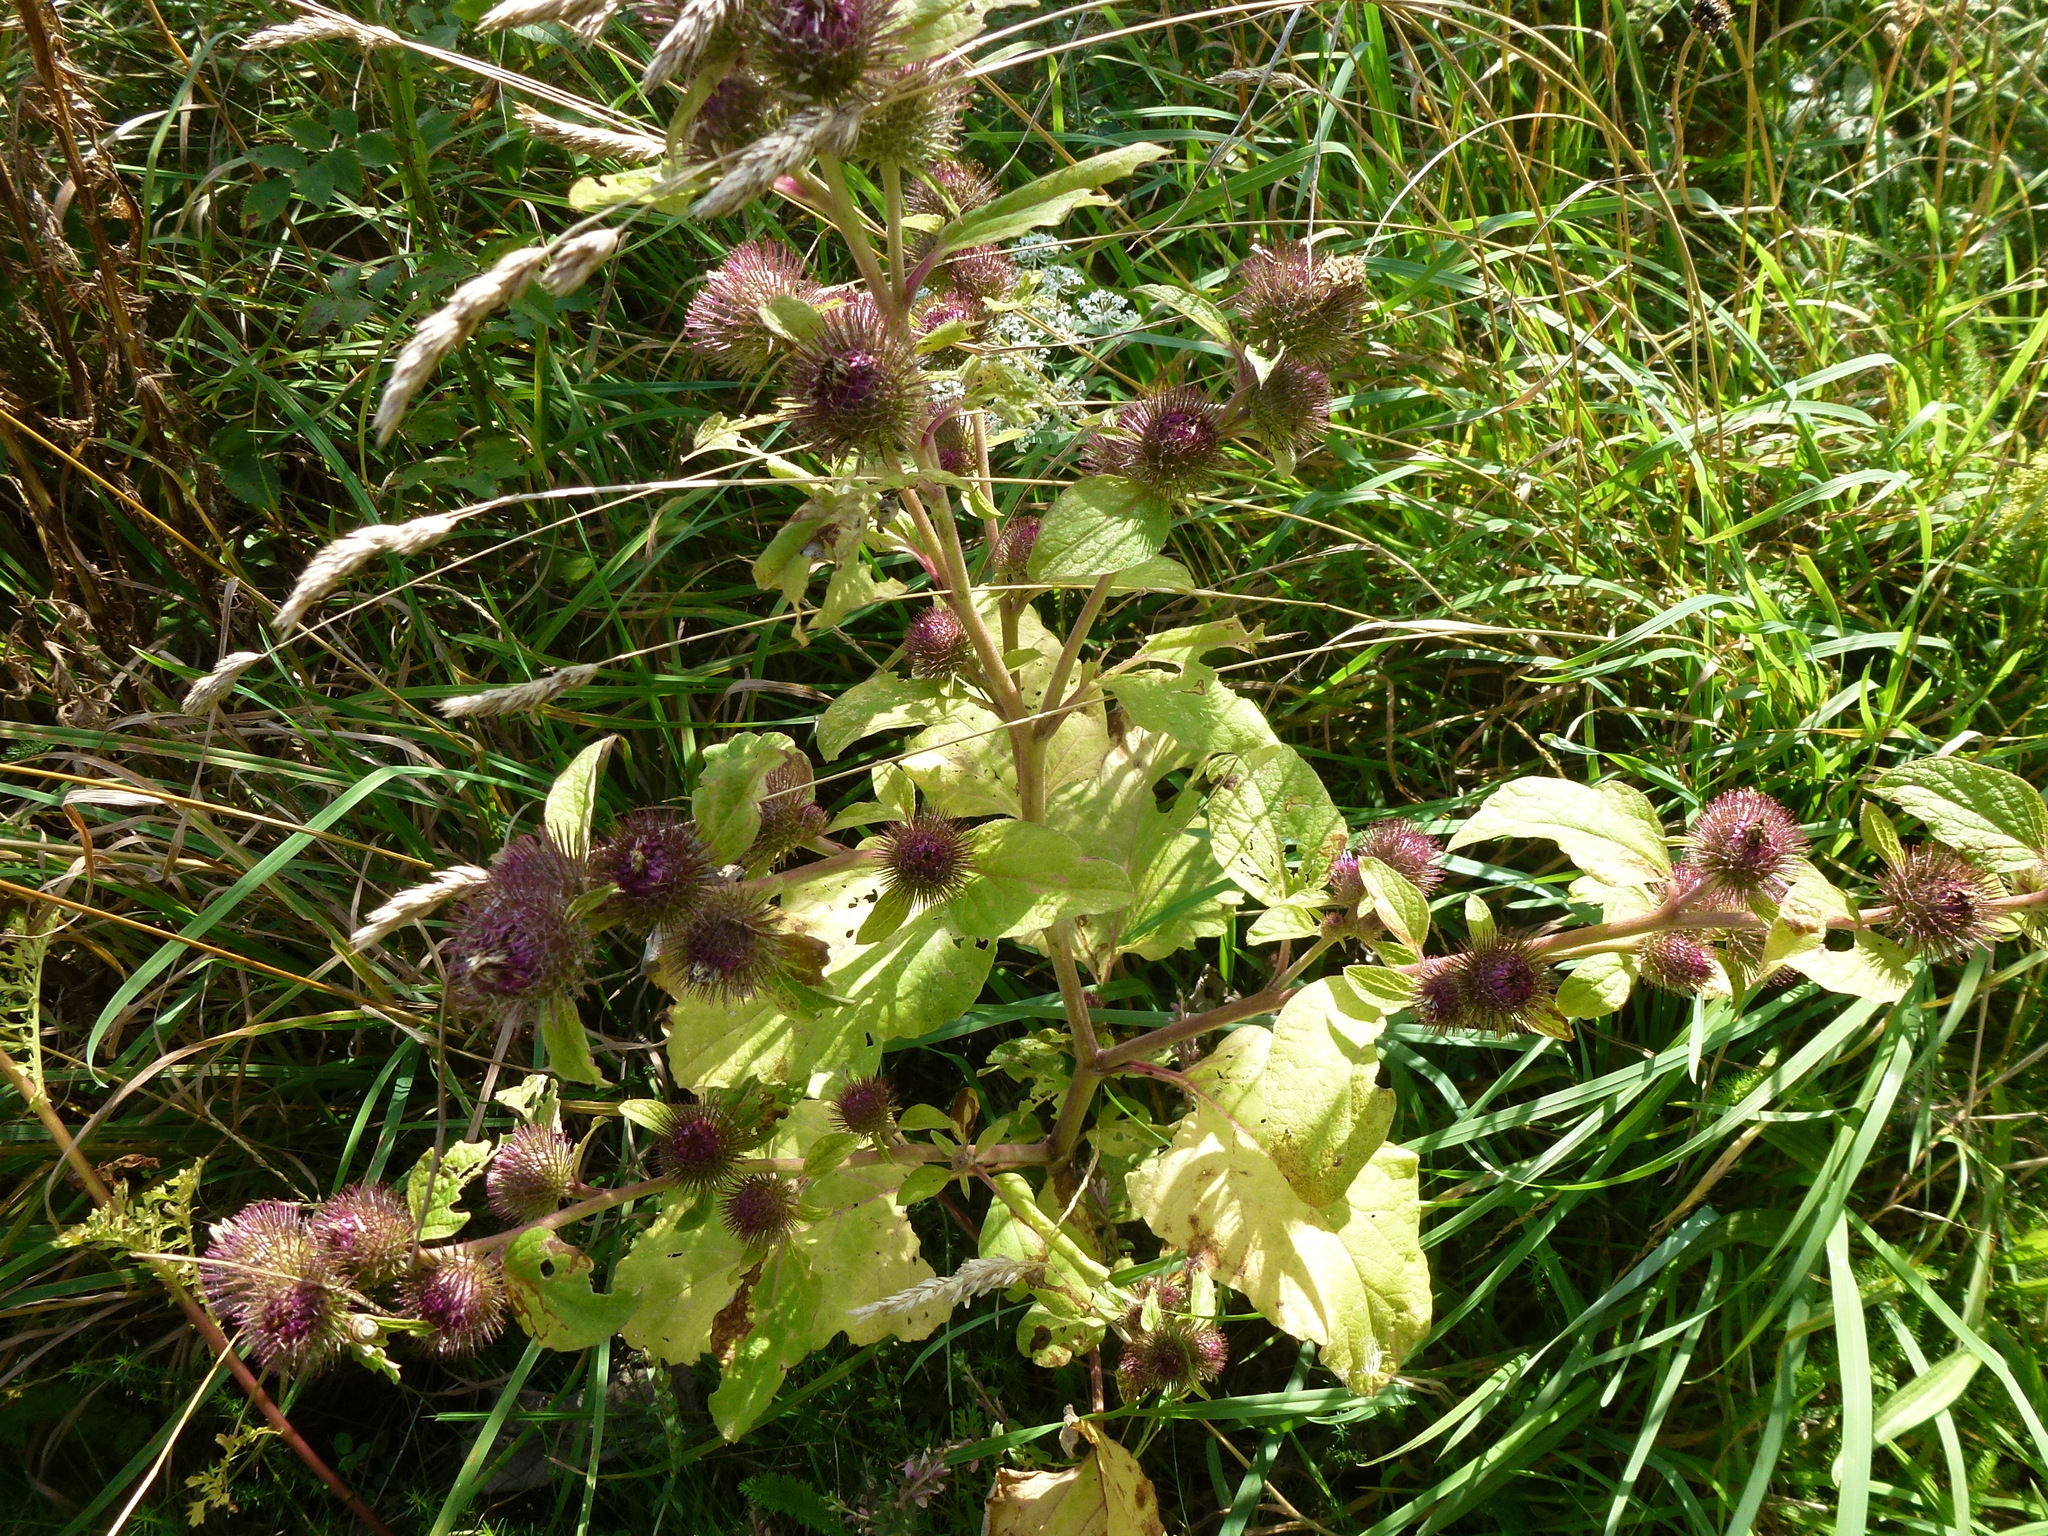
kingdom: Plantae
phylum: Tracheophyta
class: Magnoliopsida
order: Asterales
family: Asteraceae
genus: Arctium
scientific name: Arctium minus
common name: Lesser burdock
